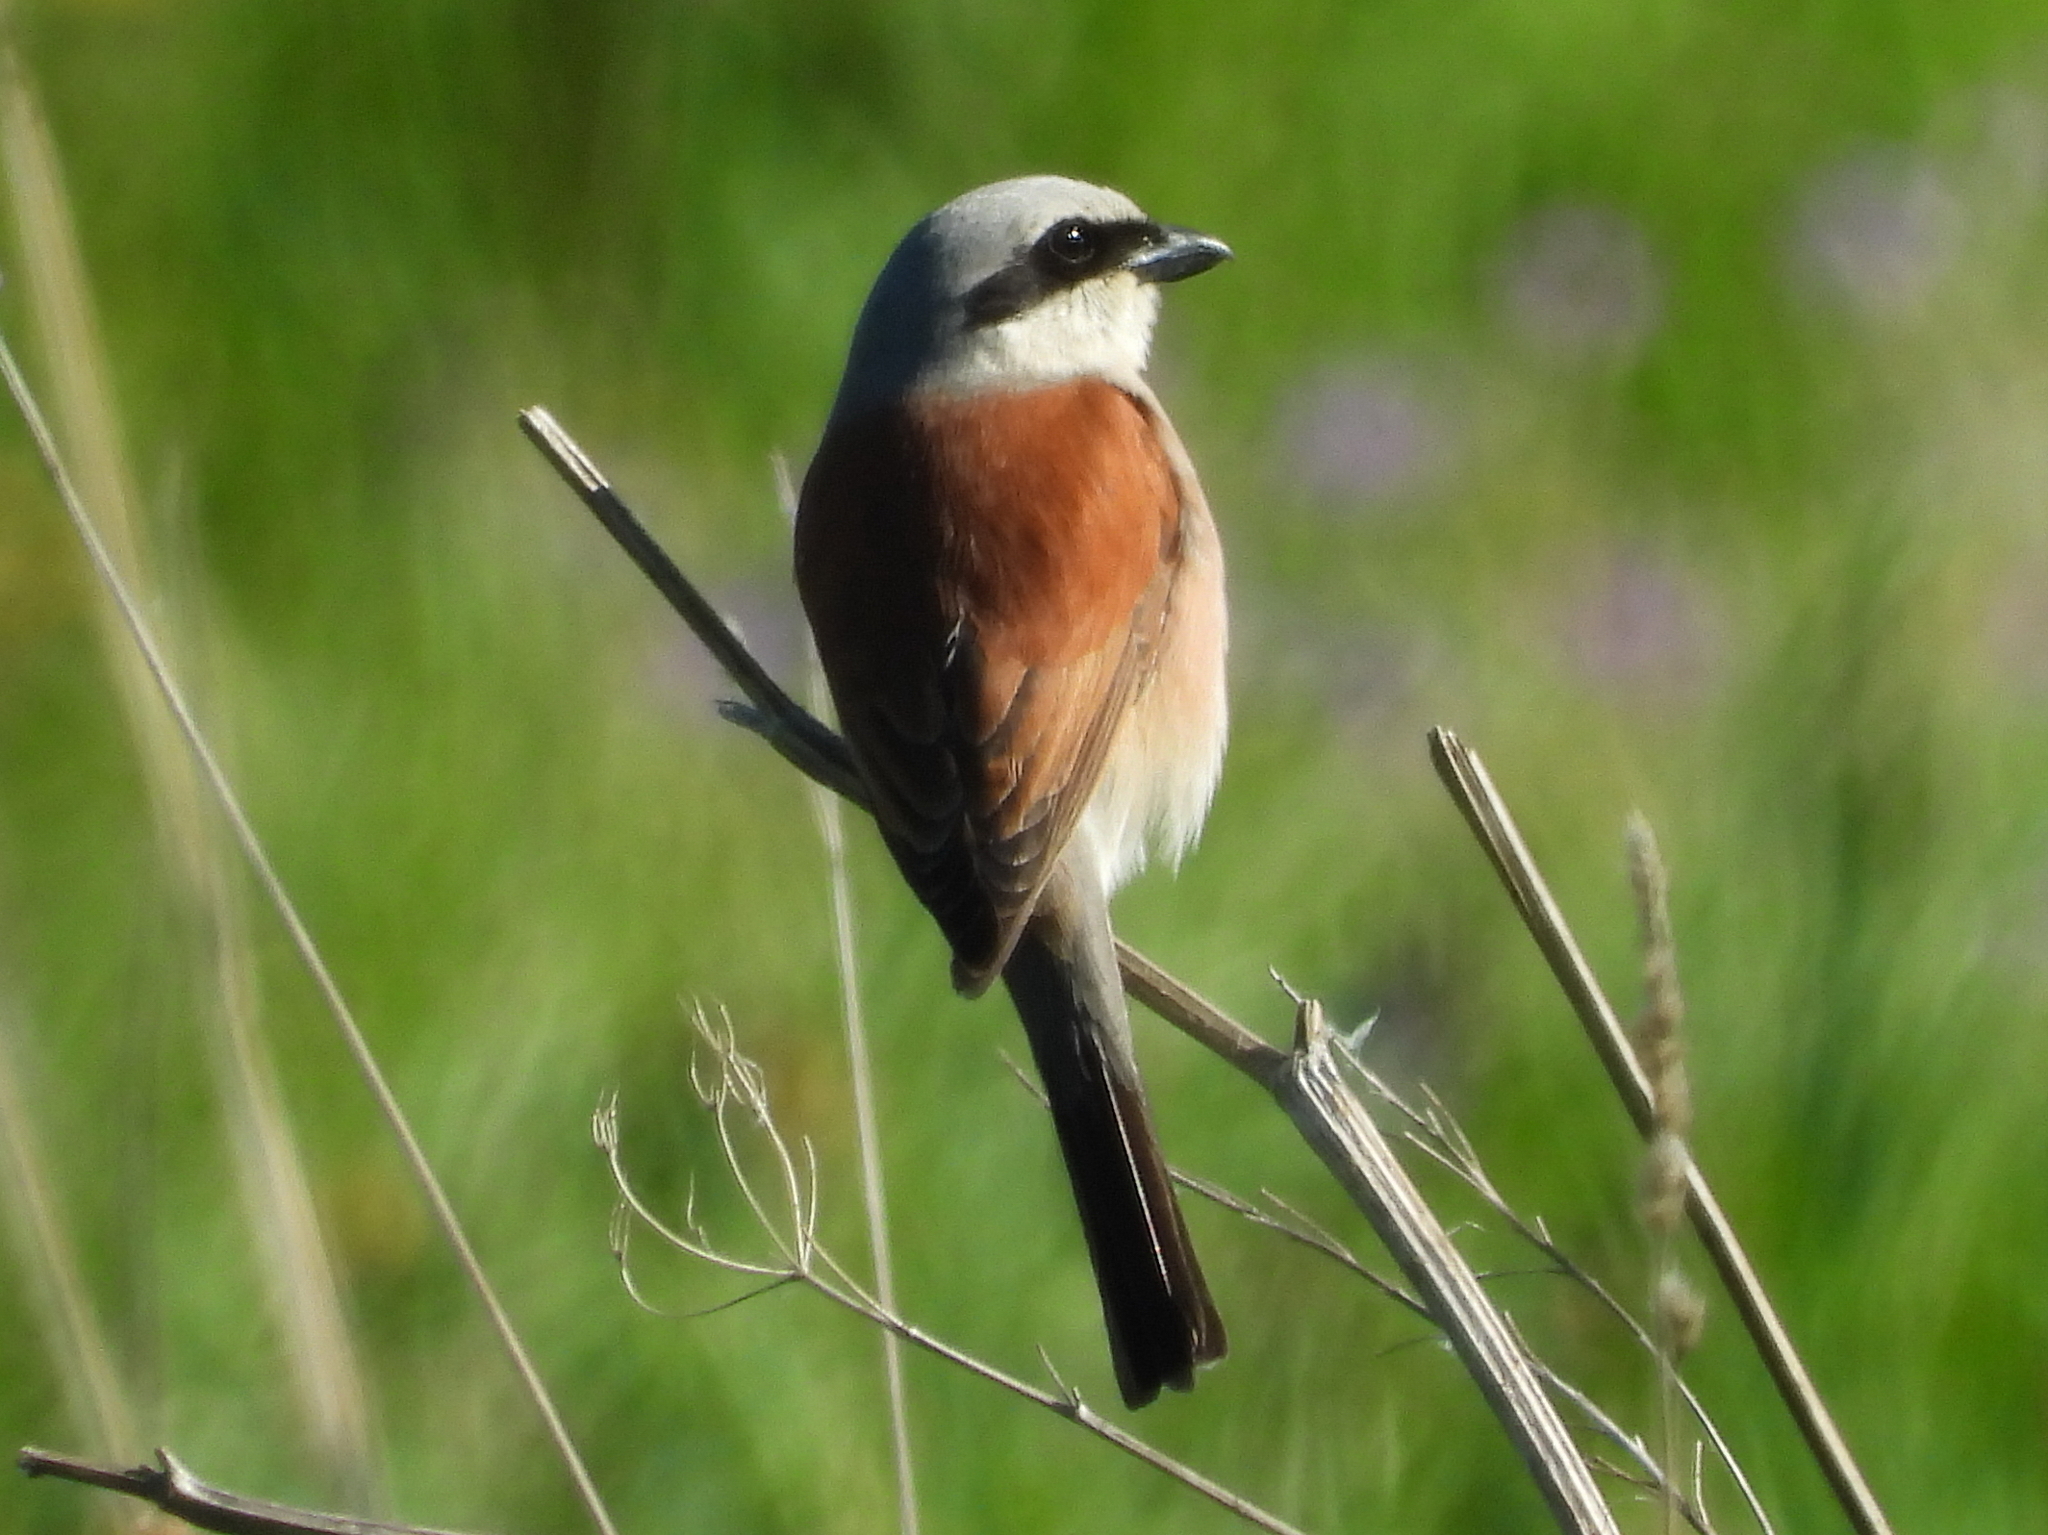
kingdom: Animalia
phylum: Chordata
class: Aves
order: Passeriformes
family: Laniidae
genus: Lanius
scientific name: Lanius collurio
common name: Red-backed shrike
